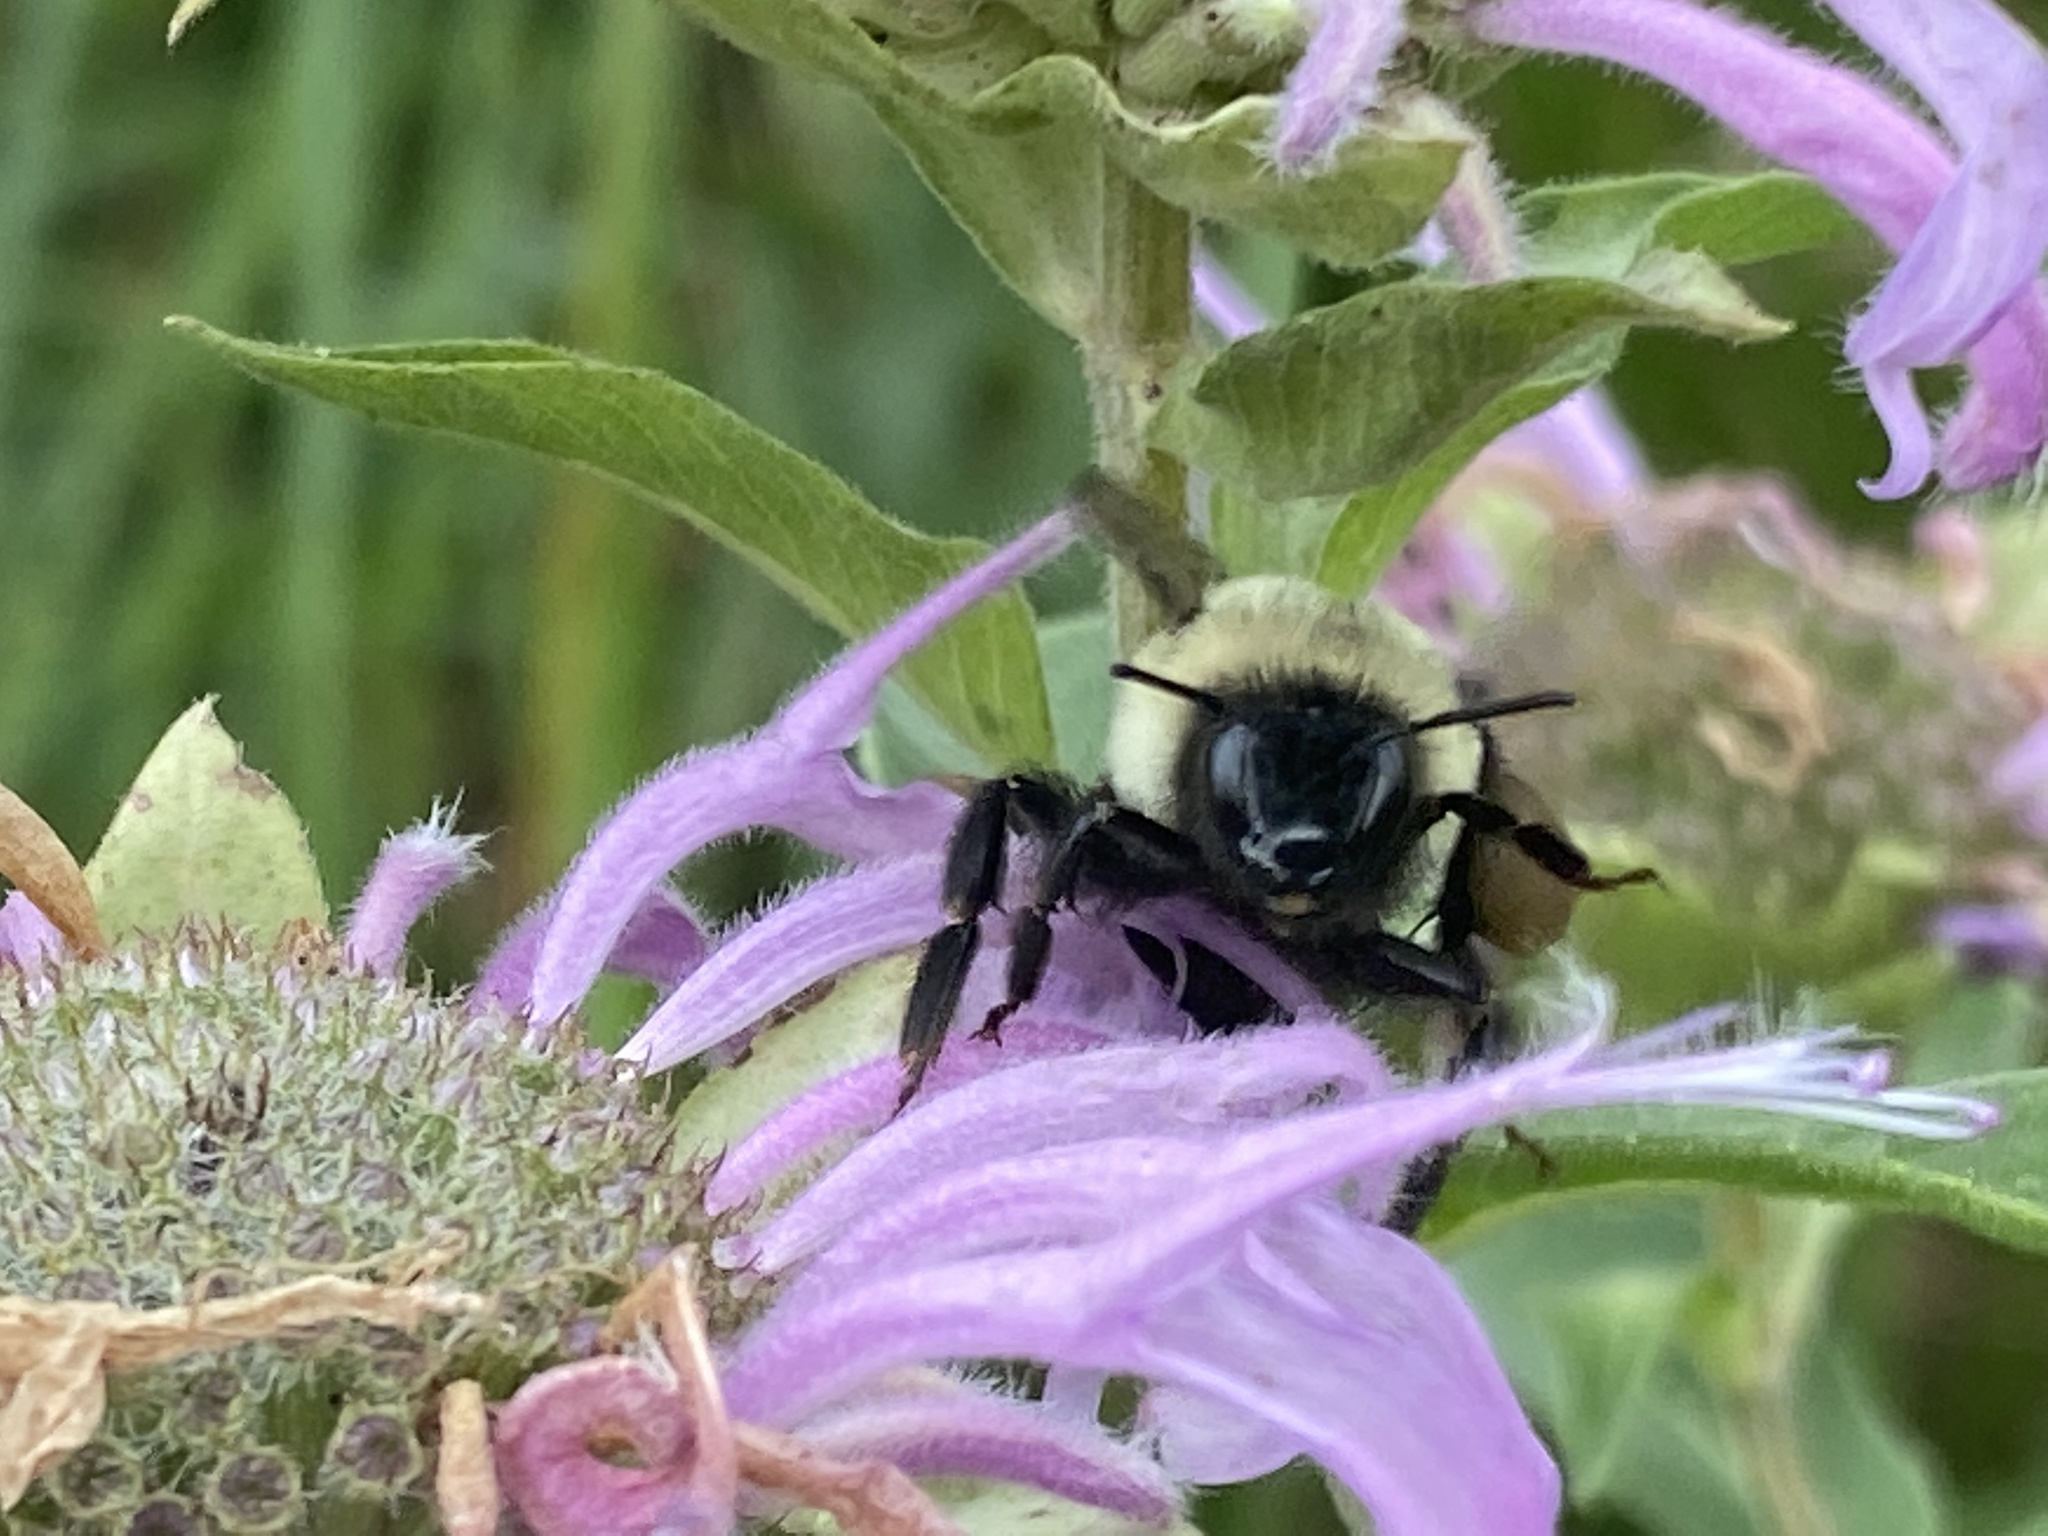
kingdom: Animalia
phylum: Arthropoda
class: Insecta
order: Hymenoptera
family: Apidae
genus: Bombus
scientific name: Bombus impatiens
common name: Common eastern bumble bee
